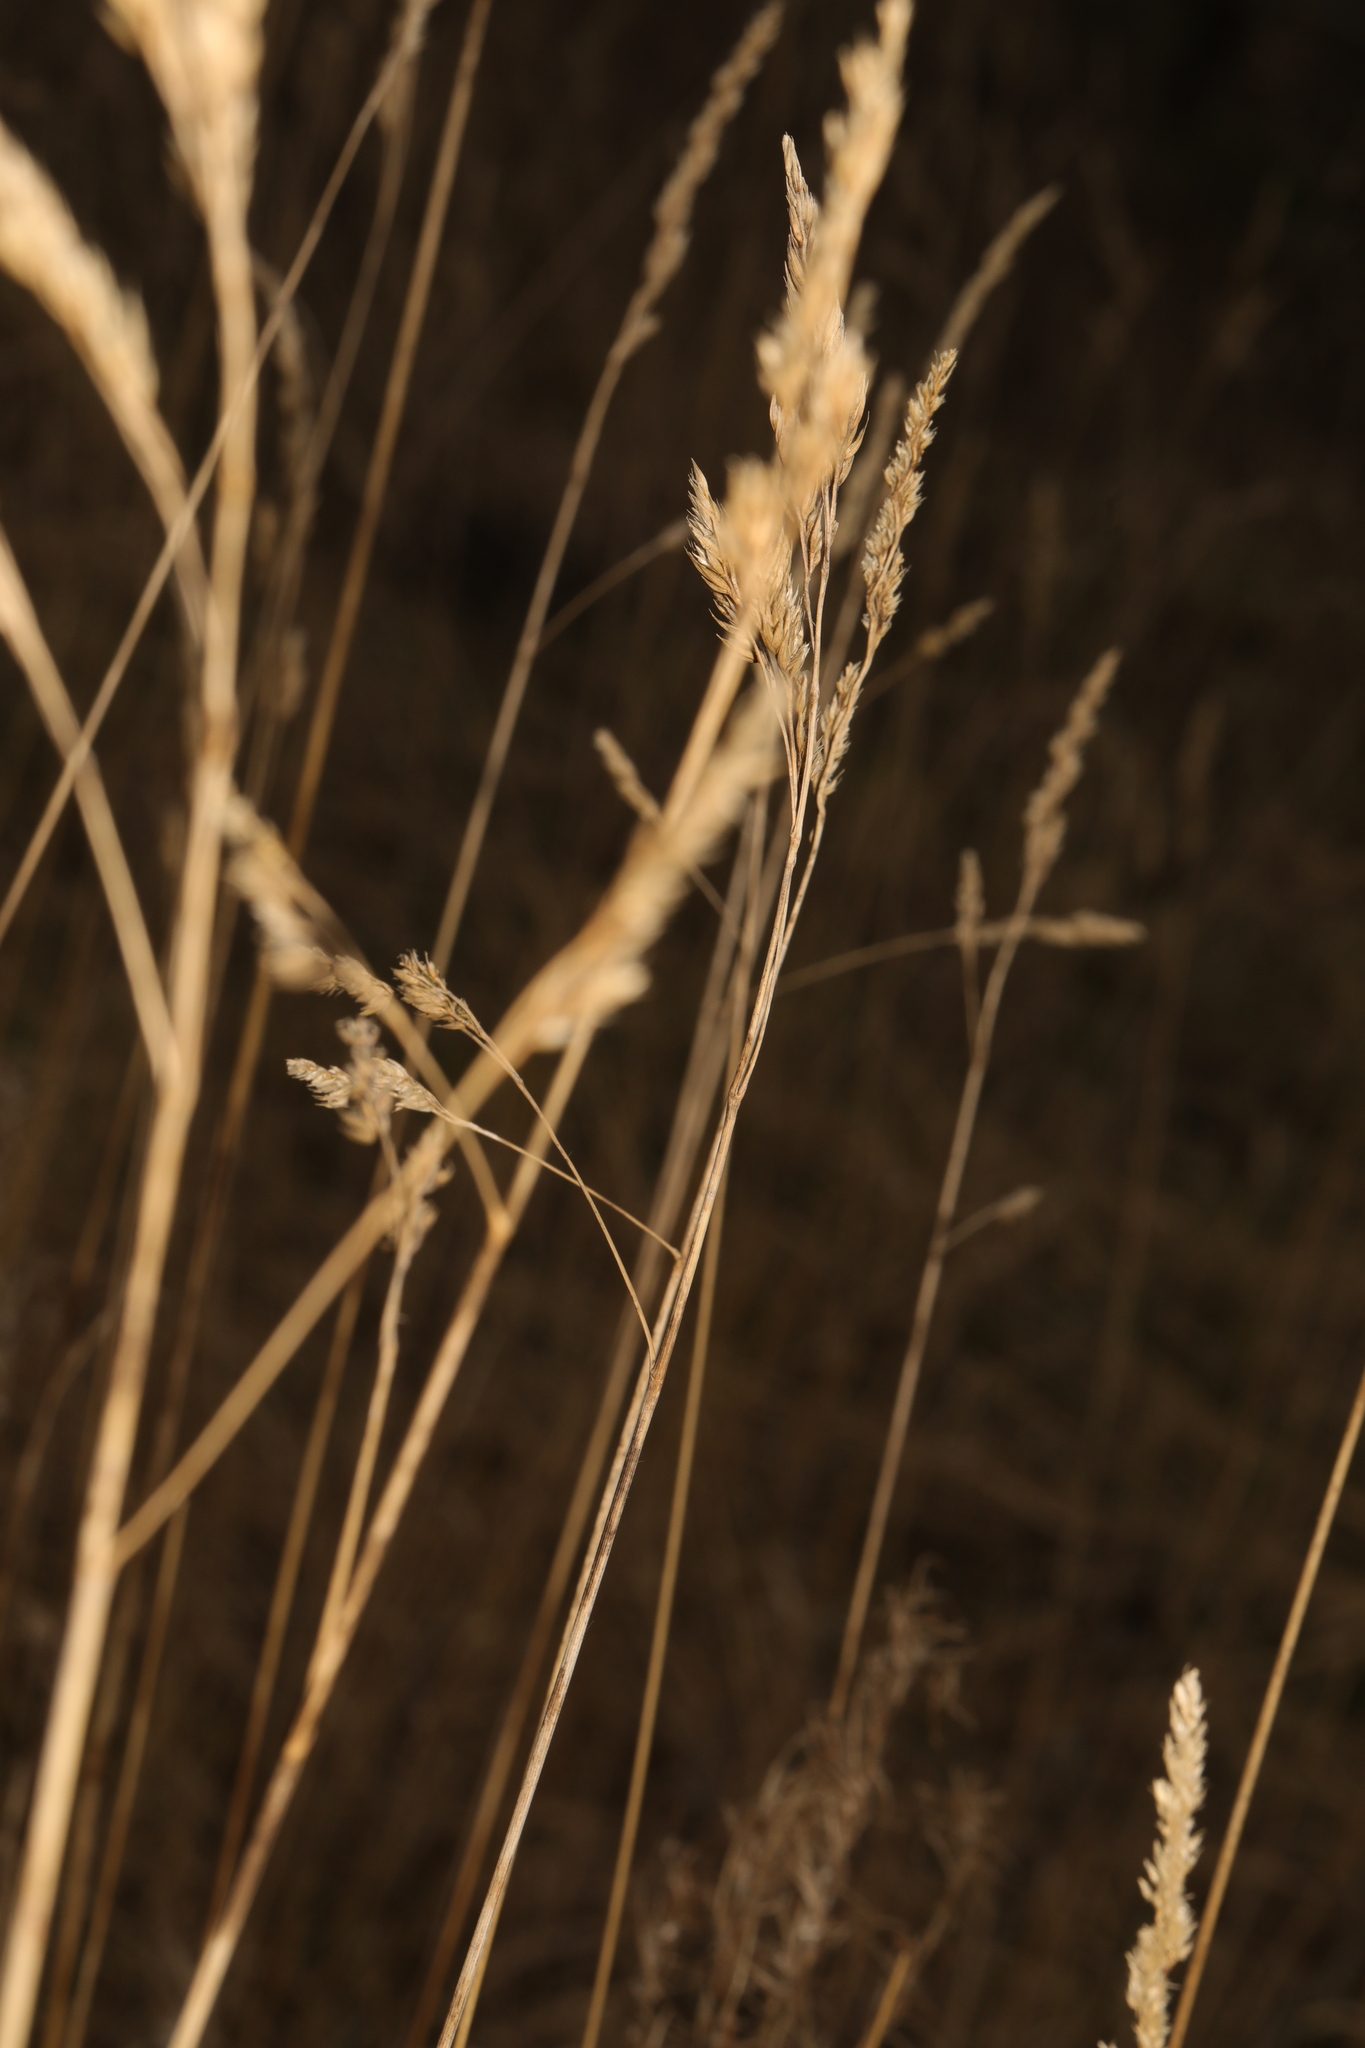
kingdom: Plantae
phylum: Tracheophyta
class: Liliopsida
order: Poales
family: Poaceae
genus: Dactylis
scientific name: Dactylis glomerata
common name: Orchardgrass
